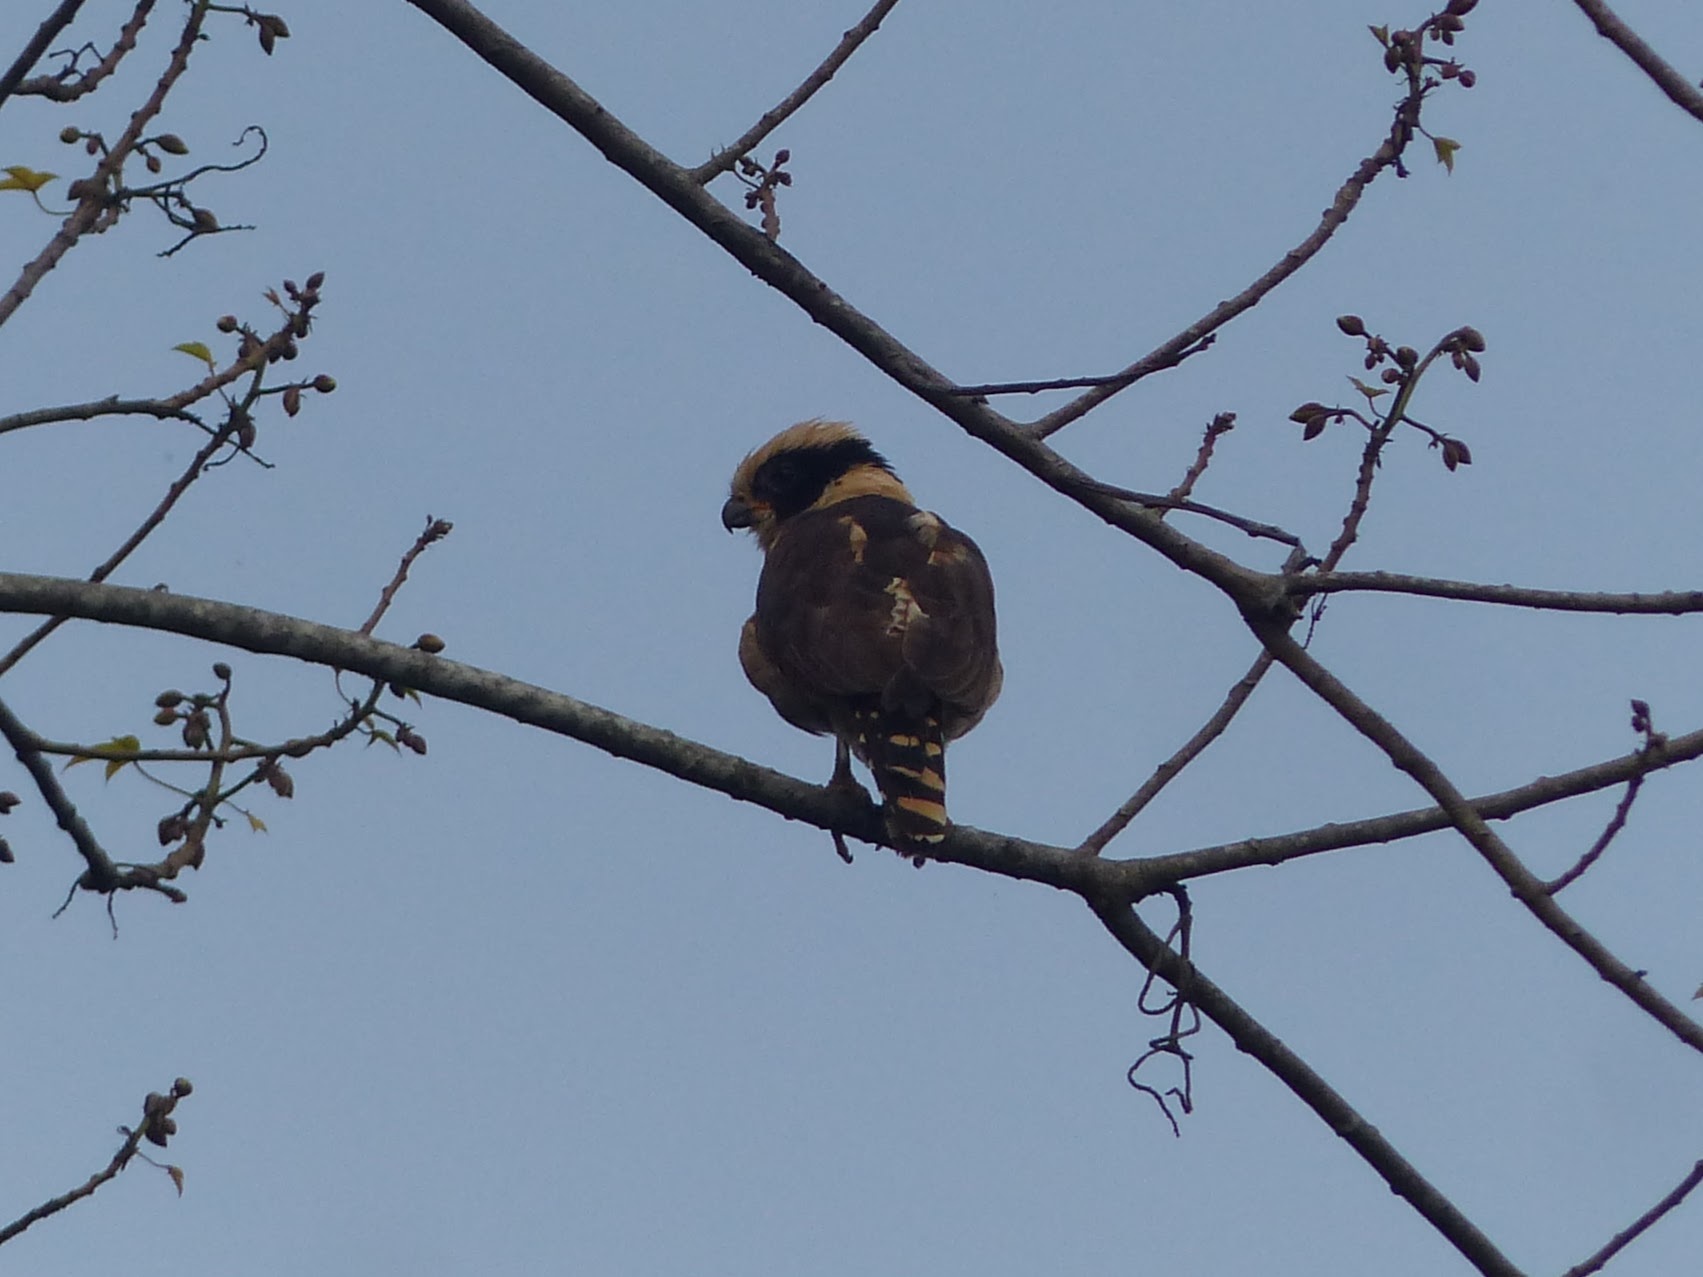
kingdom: Animalia
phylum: Chordata
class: Aves
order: Falconiformes
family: Falconidae
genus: Herpetotheres
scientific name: Herpetotheres cachinnans
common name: Laughing falcon
